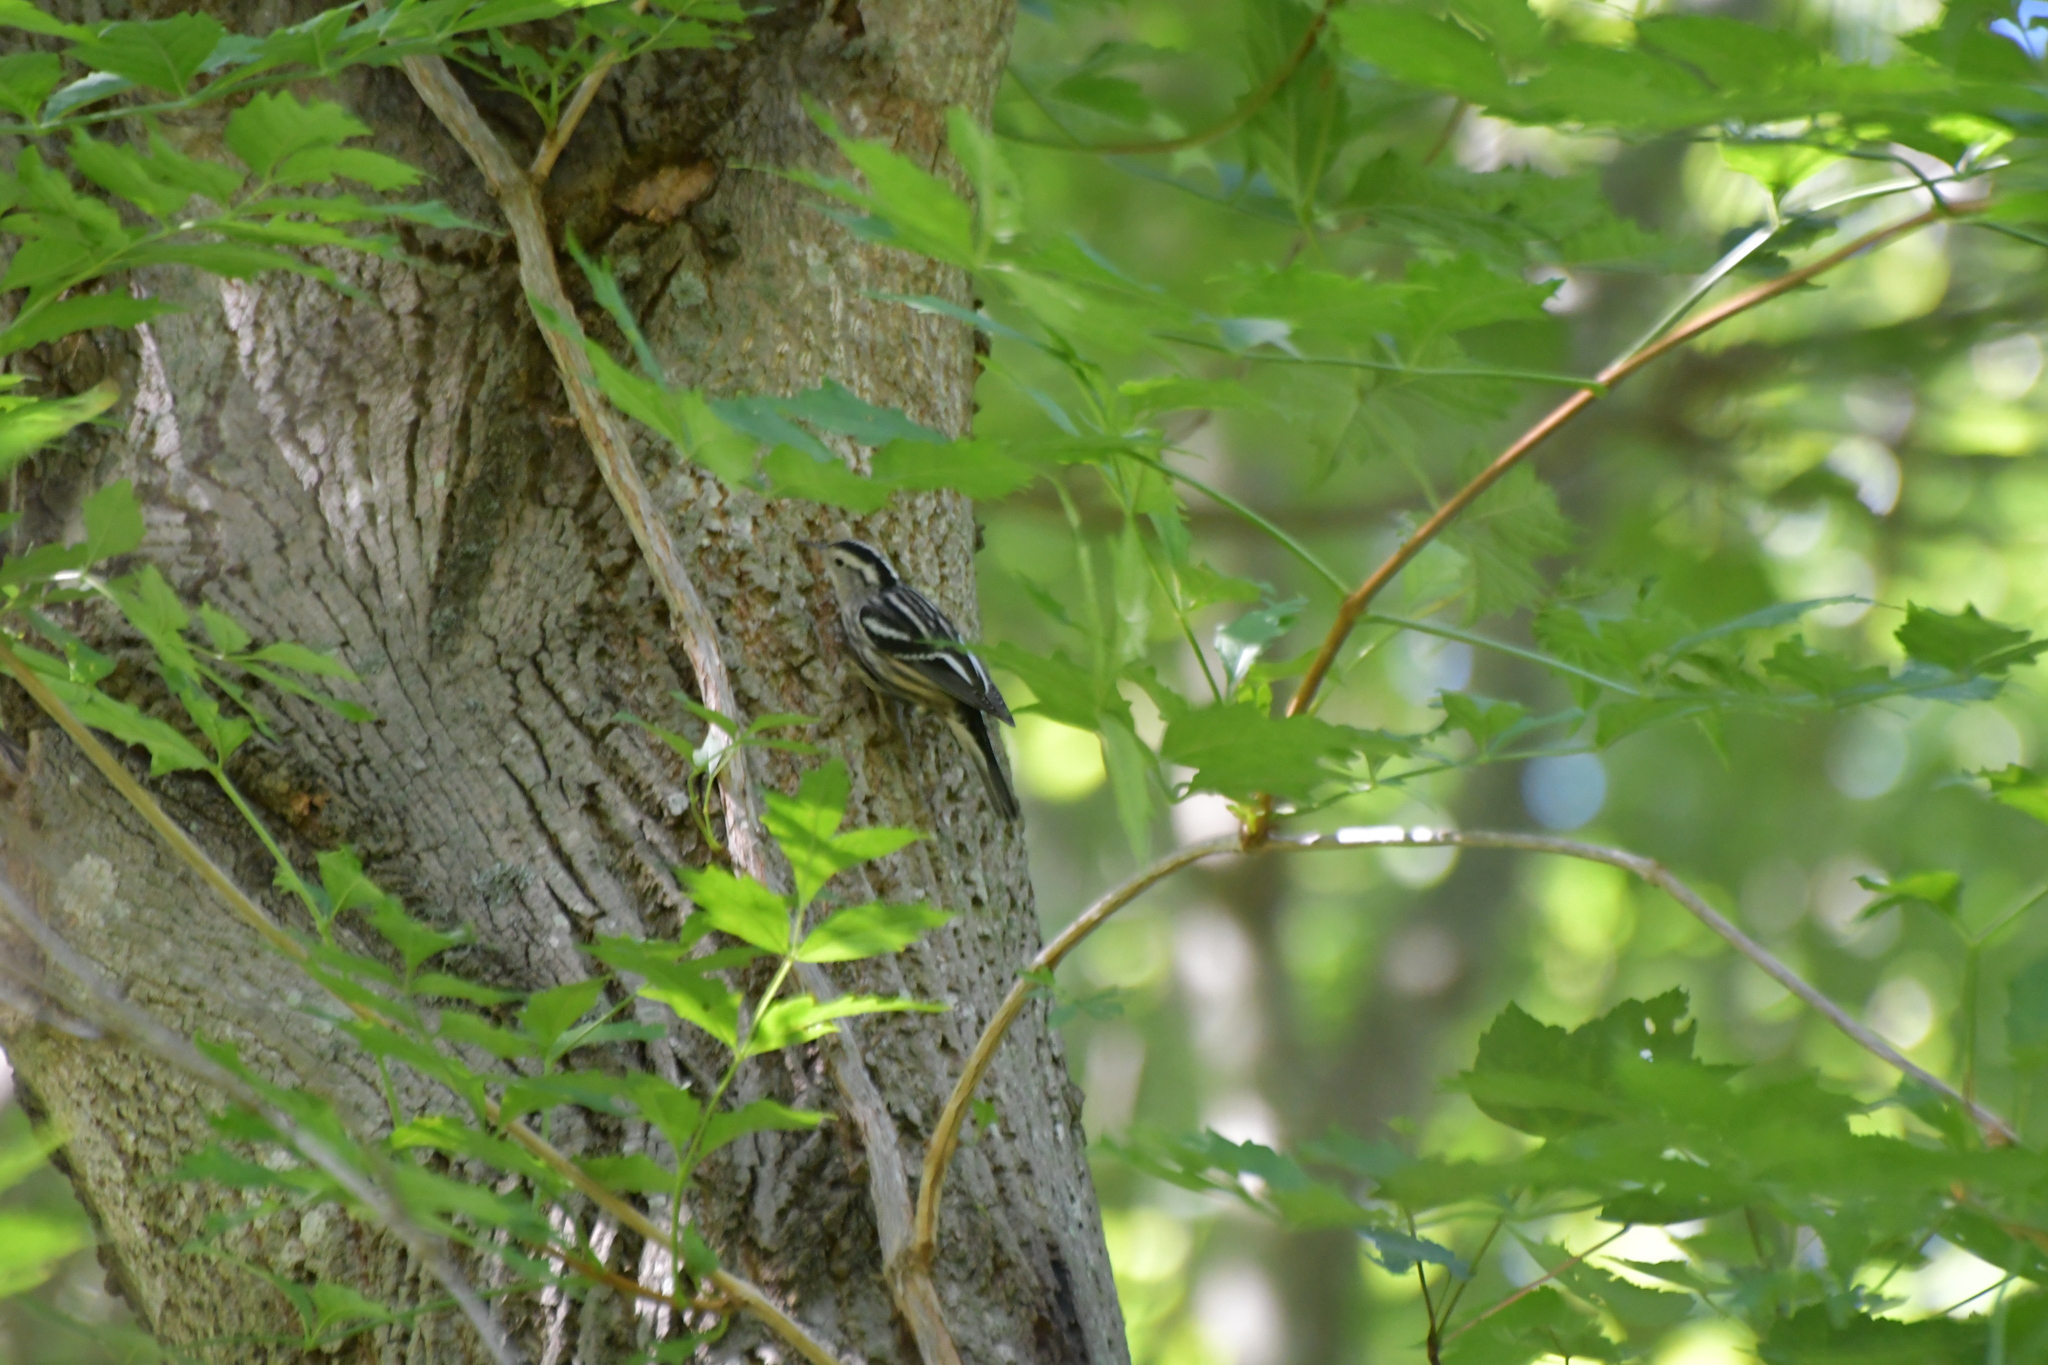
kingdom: Animalia
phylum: Chordata
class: Aves
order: Passeriformes
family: Parulidae
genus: Mniotilta
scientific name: Mniotilta varia
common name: Black-and-white warbler
